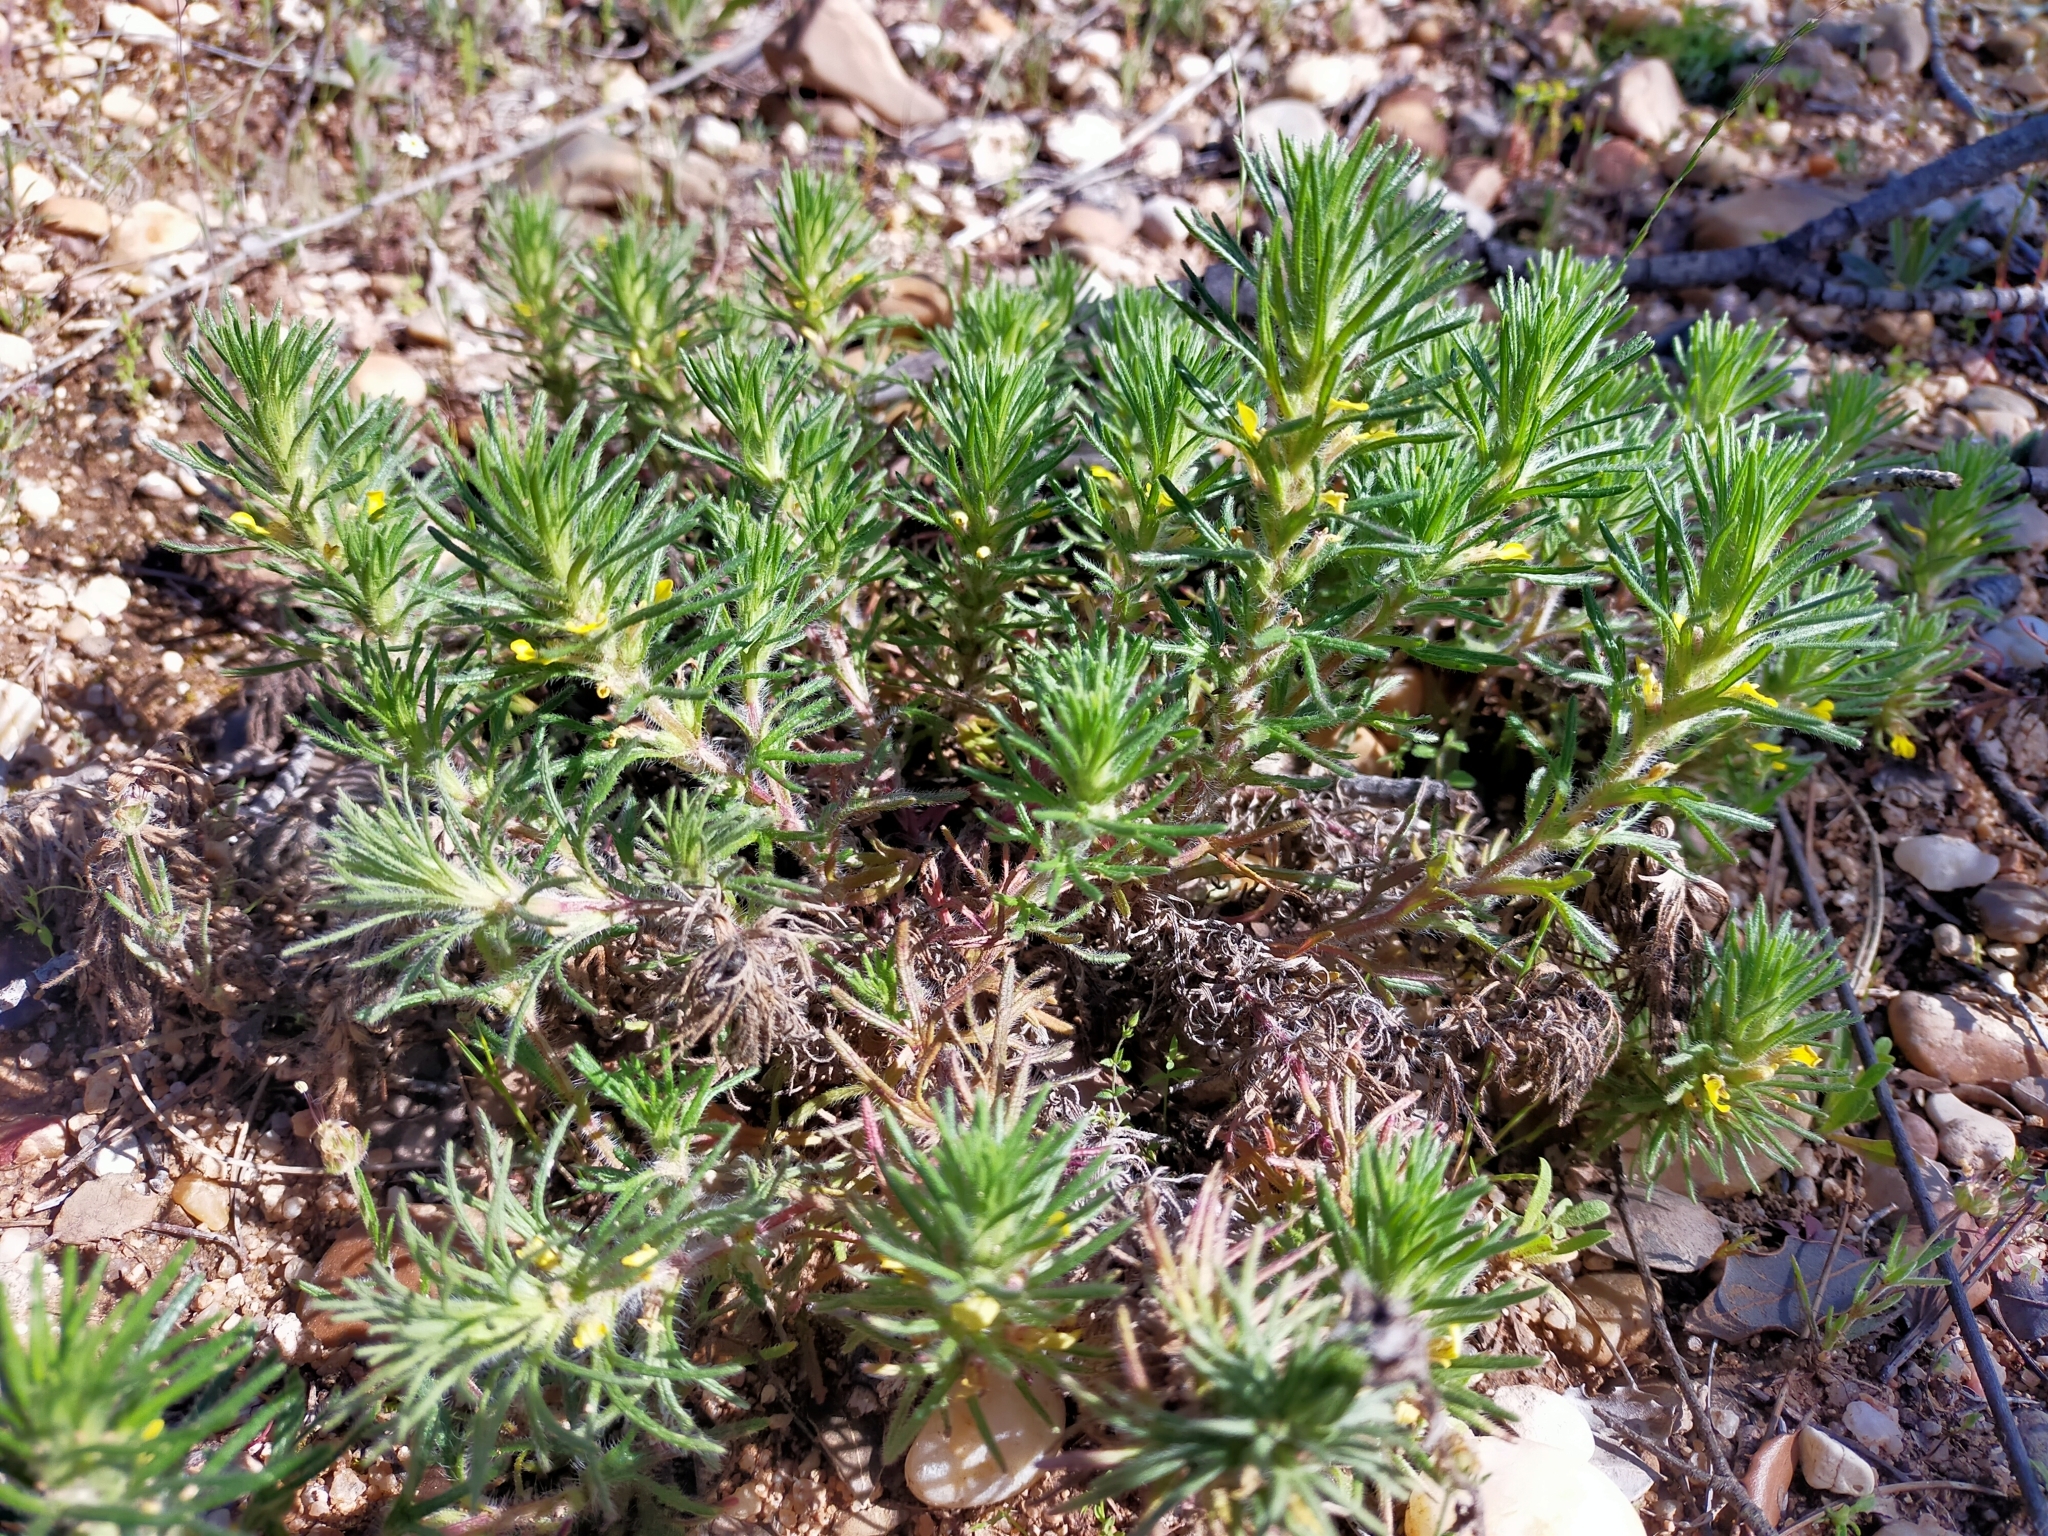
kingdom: Plantae
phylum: Tracheophyta
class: Magnoliopsida
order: Lamiales
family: Lamiaceae
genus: Ajuga
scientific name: Ajuga chamaepitys
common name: Ground-pine
